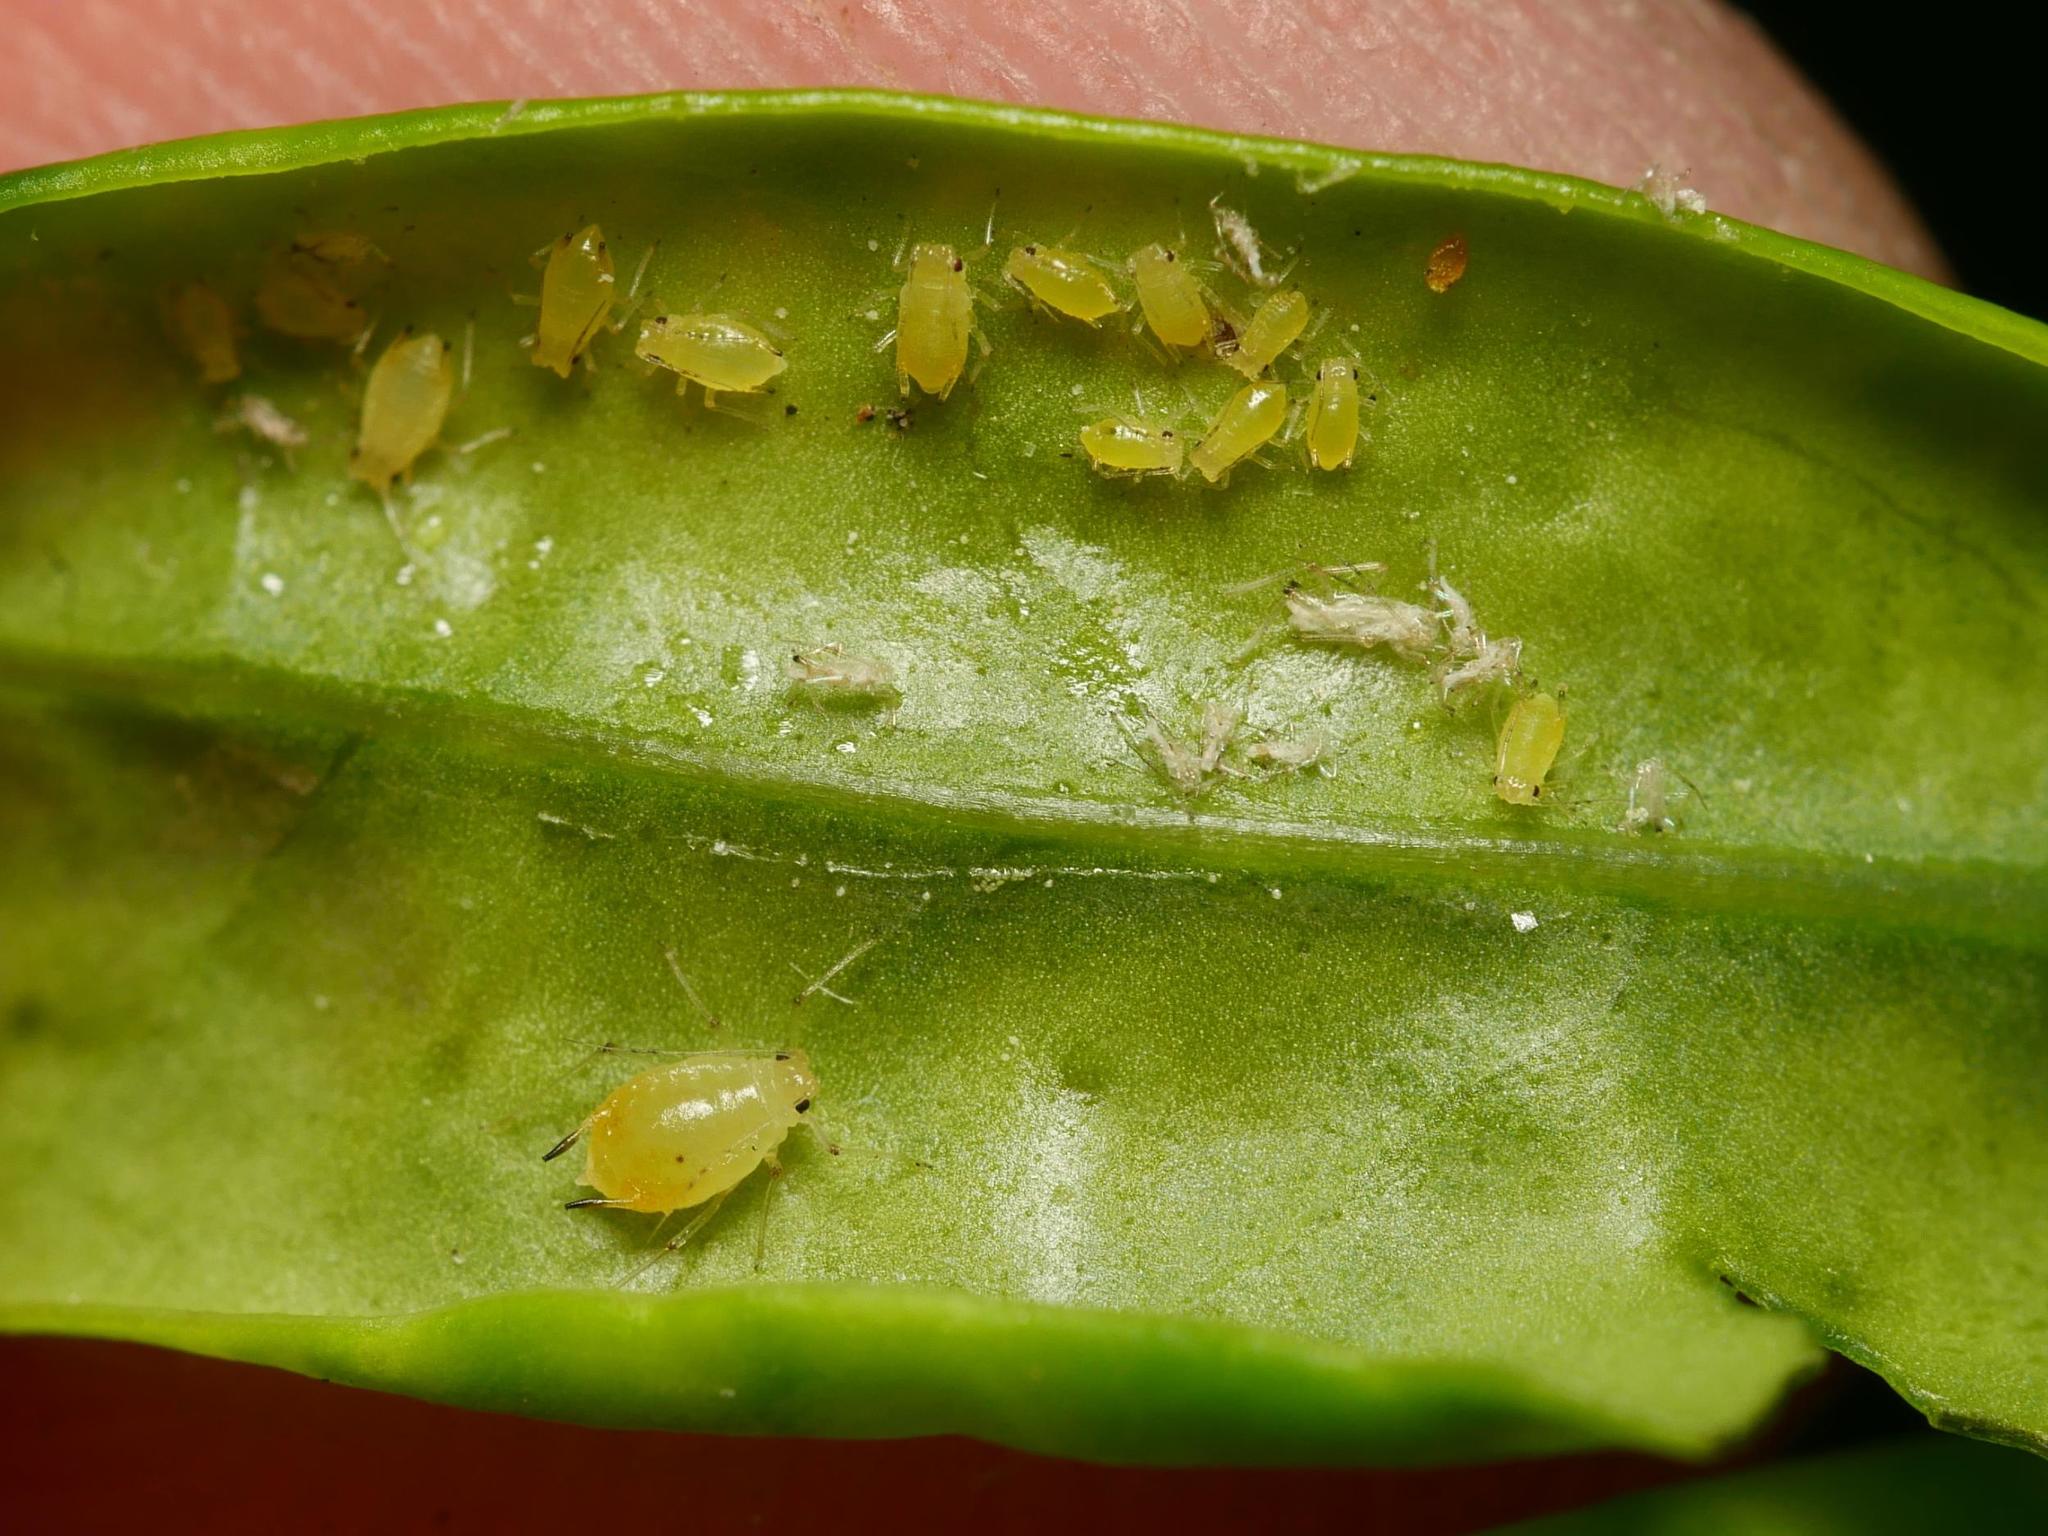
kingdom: Animalia
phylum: Arthropoda
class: Insecta
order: Hemiptera
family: Aphididae
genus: Myzus
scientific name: Myzus ligustri
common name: Privet aphid
